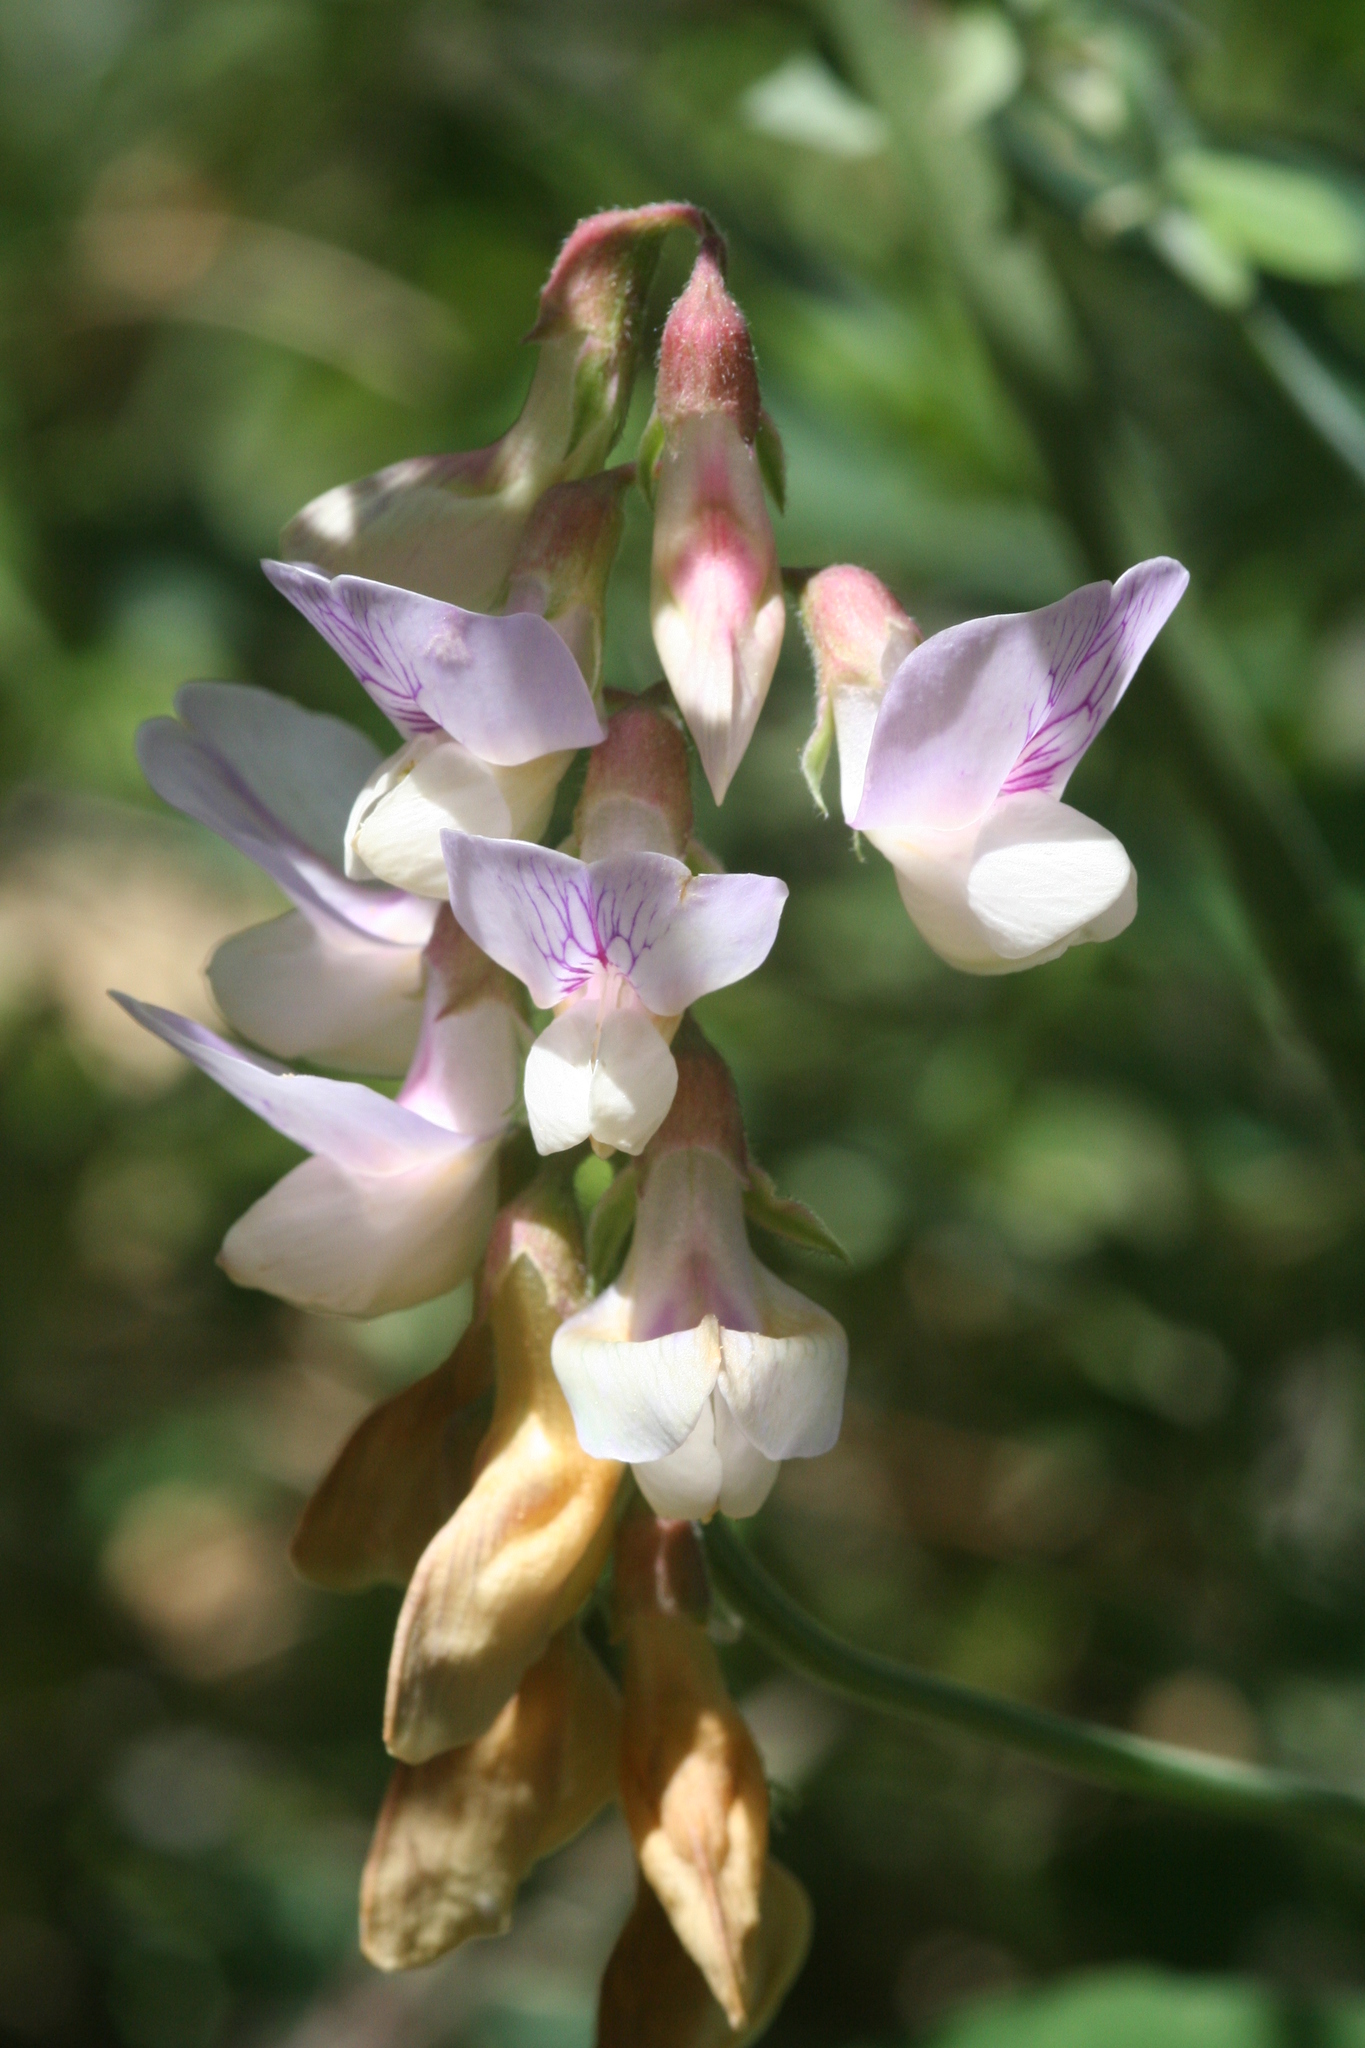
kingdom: Plantae
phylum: Tracheophyta
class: Magnoliopsida
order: Fabales
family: Fabaceae
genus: Lathyrus
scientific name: Lathyrus vestitus
